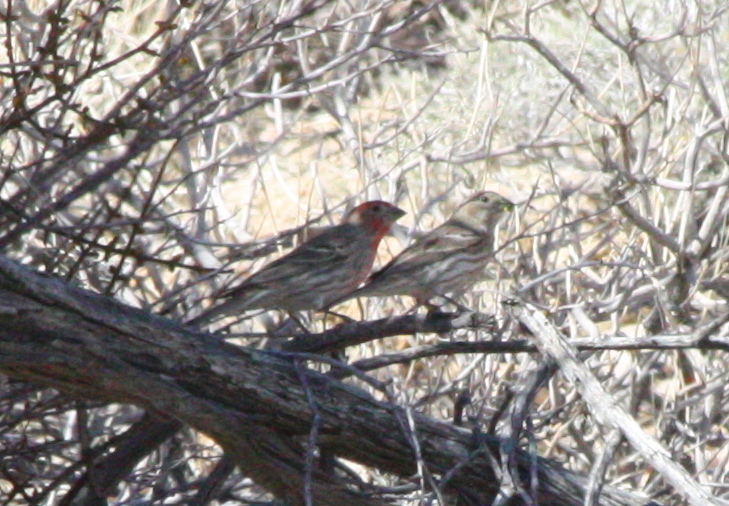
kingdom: Animalia
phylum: Chordata
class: Aves
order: Passeriformes
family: Fringillidae
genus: Haemorhous
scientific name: Haemorhous mexicanus
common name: House finch
